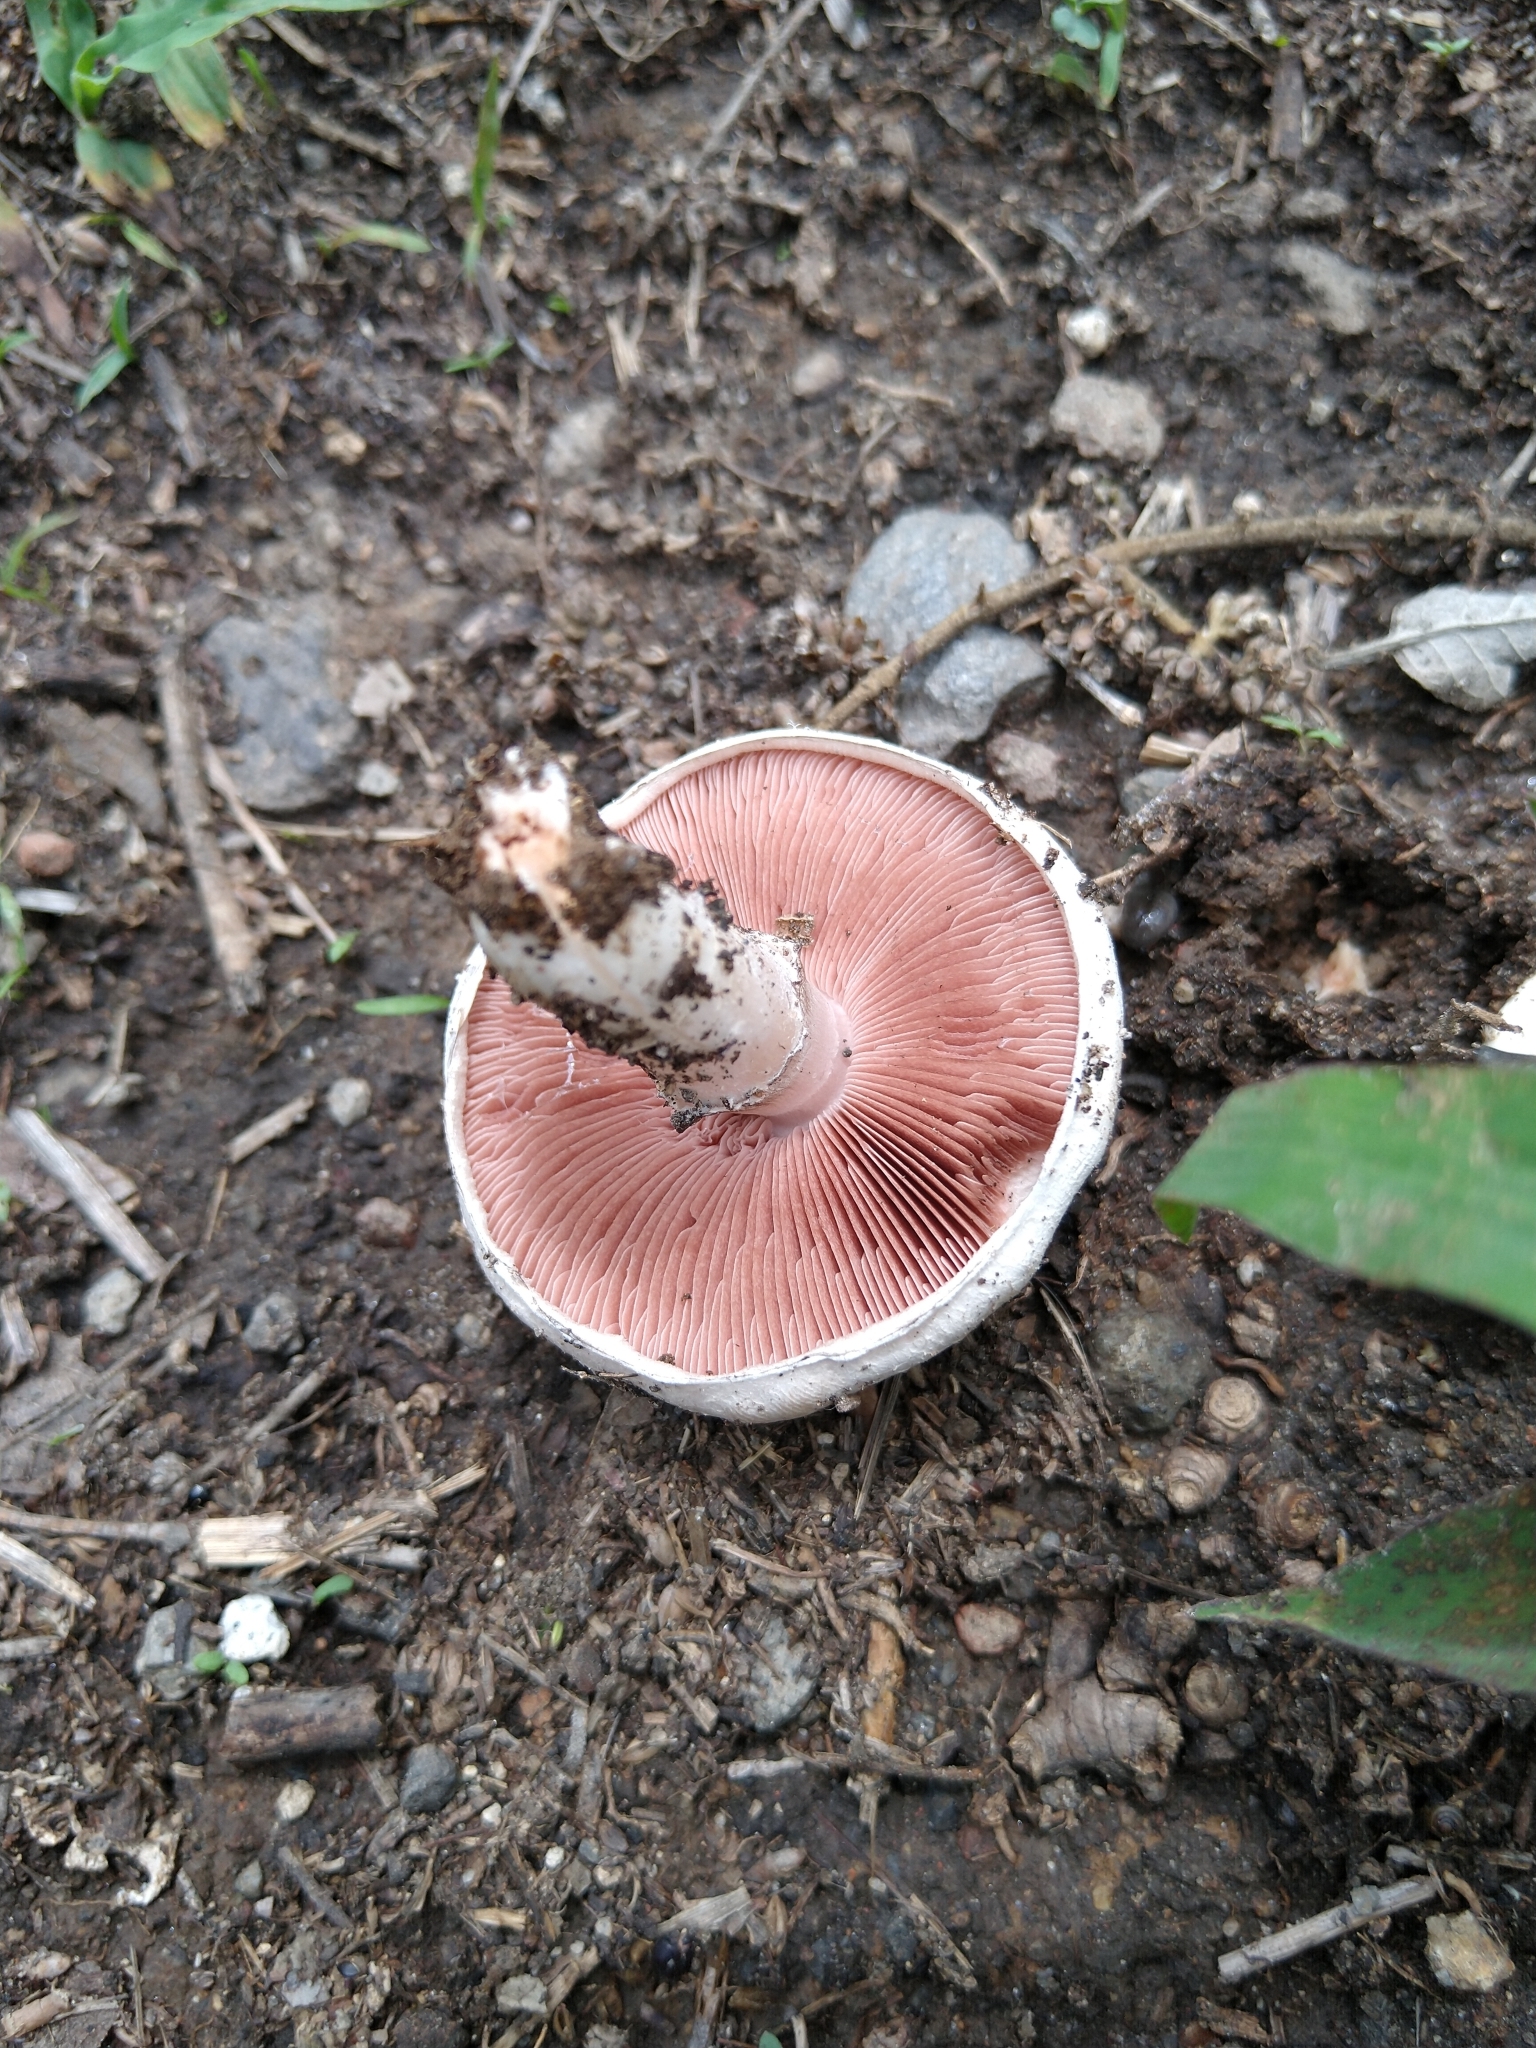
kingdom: Fungi
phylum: Basidiomycota
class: Agaricomycetes
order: Agaricales
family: Agaricaceae
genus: Agaricus
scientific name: Agaricus campestris
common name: Field mushroom
